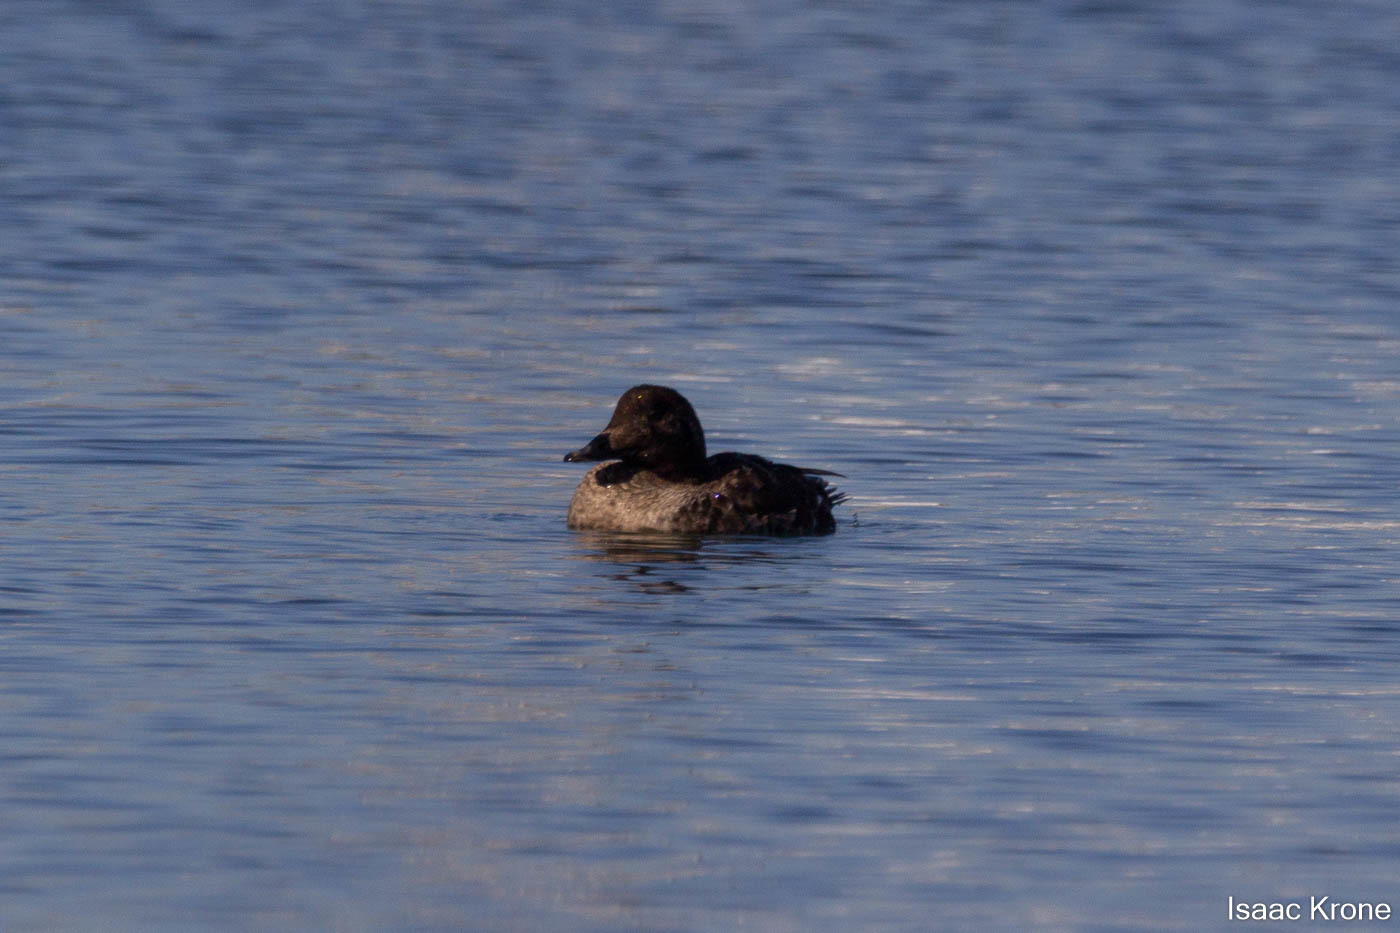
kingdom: Animalia
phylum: Chordata
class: Aves
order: Anseriformes
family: Anatidae
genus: Melanitta
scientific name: Melanitta deglandi
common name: White-winged scoter
